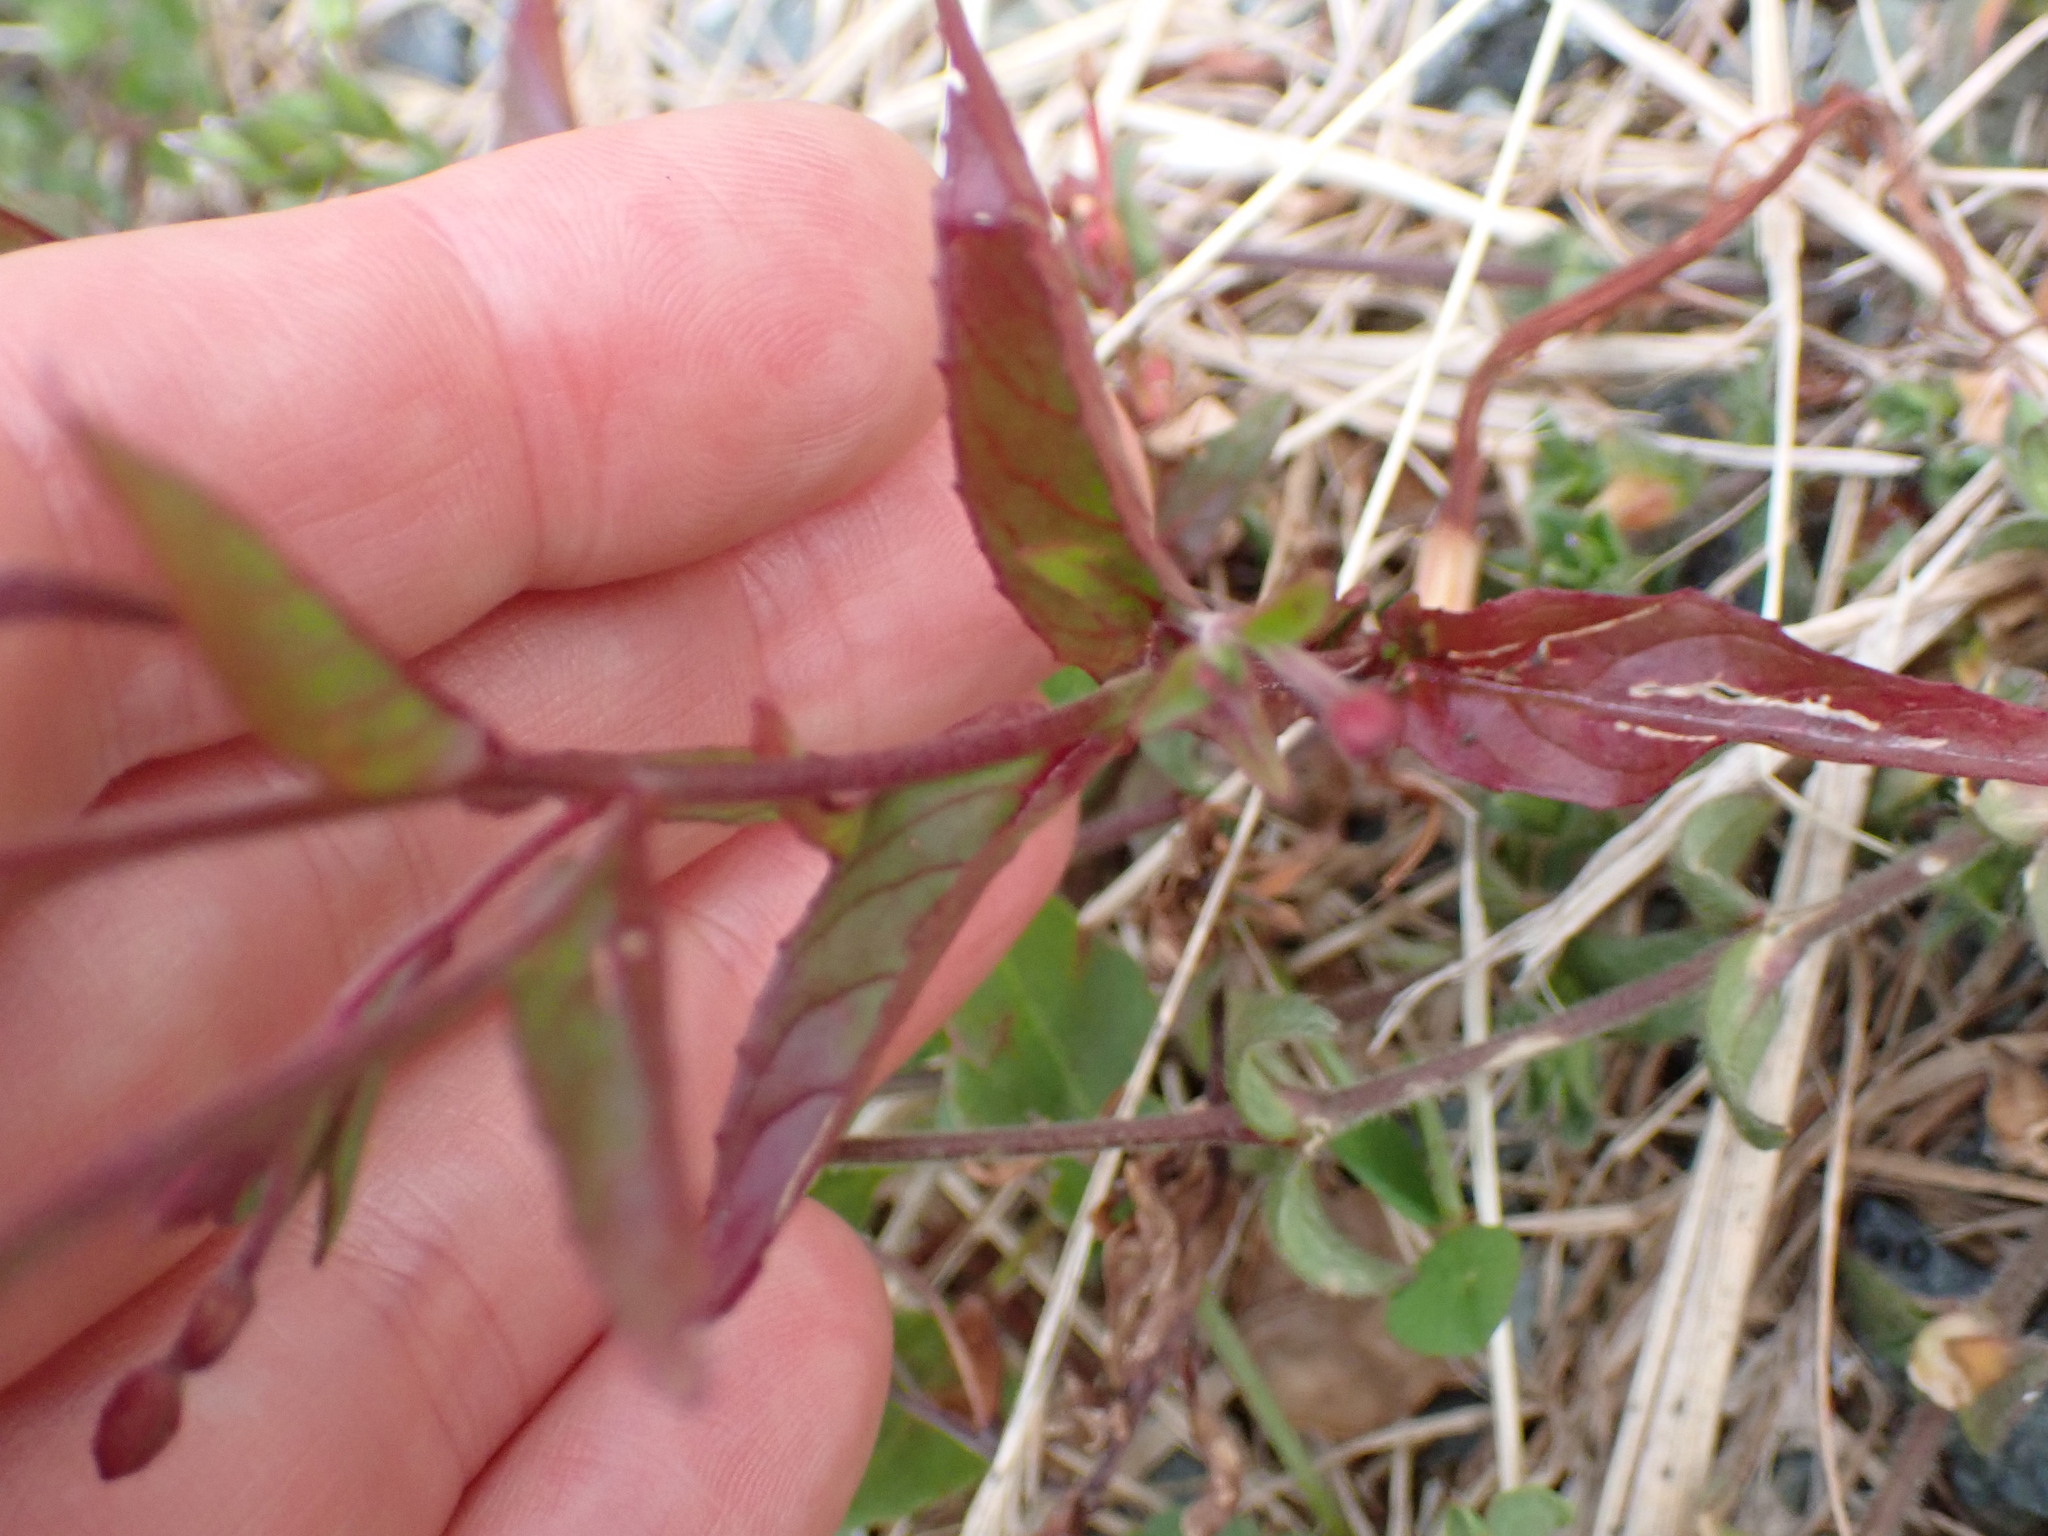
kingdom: Plantae
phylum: Tracheophyta
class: Magnoliopsida
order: Myrtales
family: Onagraceae
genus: Epilobium
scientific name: Epilobium ciliatum
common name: American willowherb
